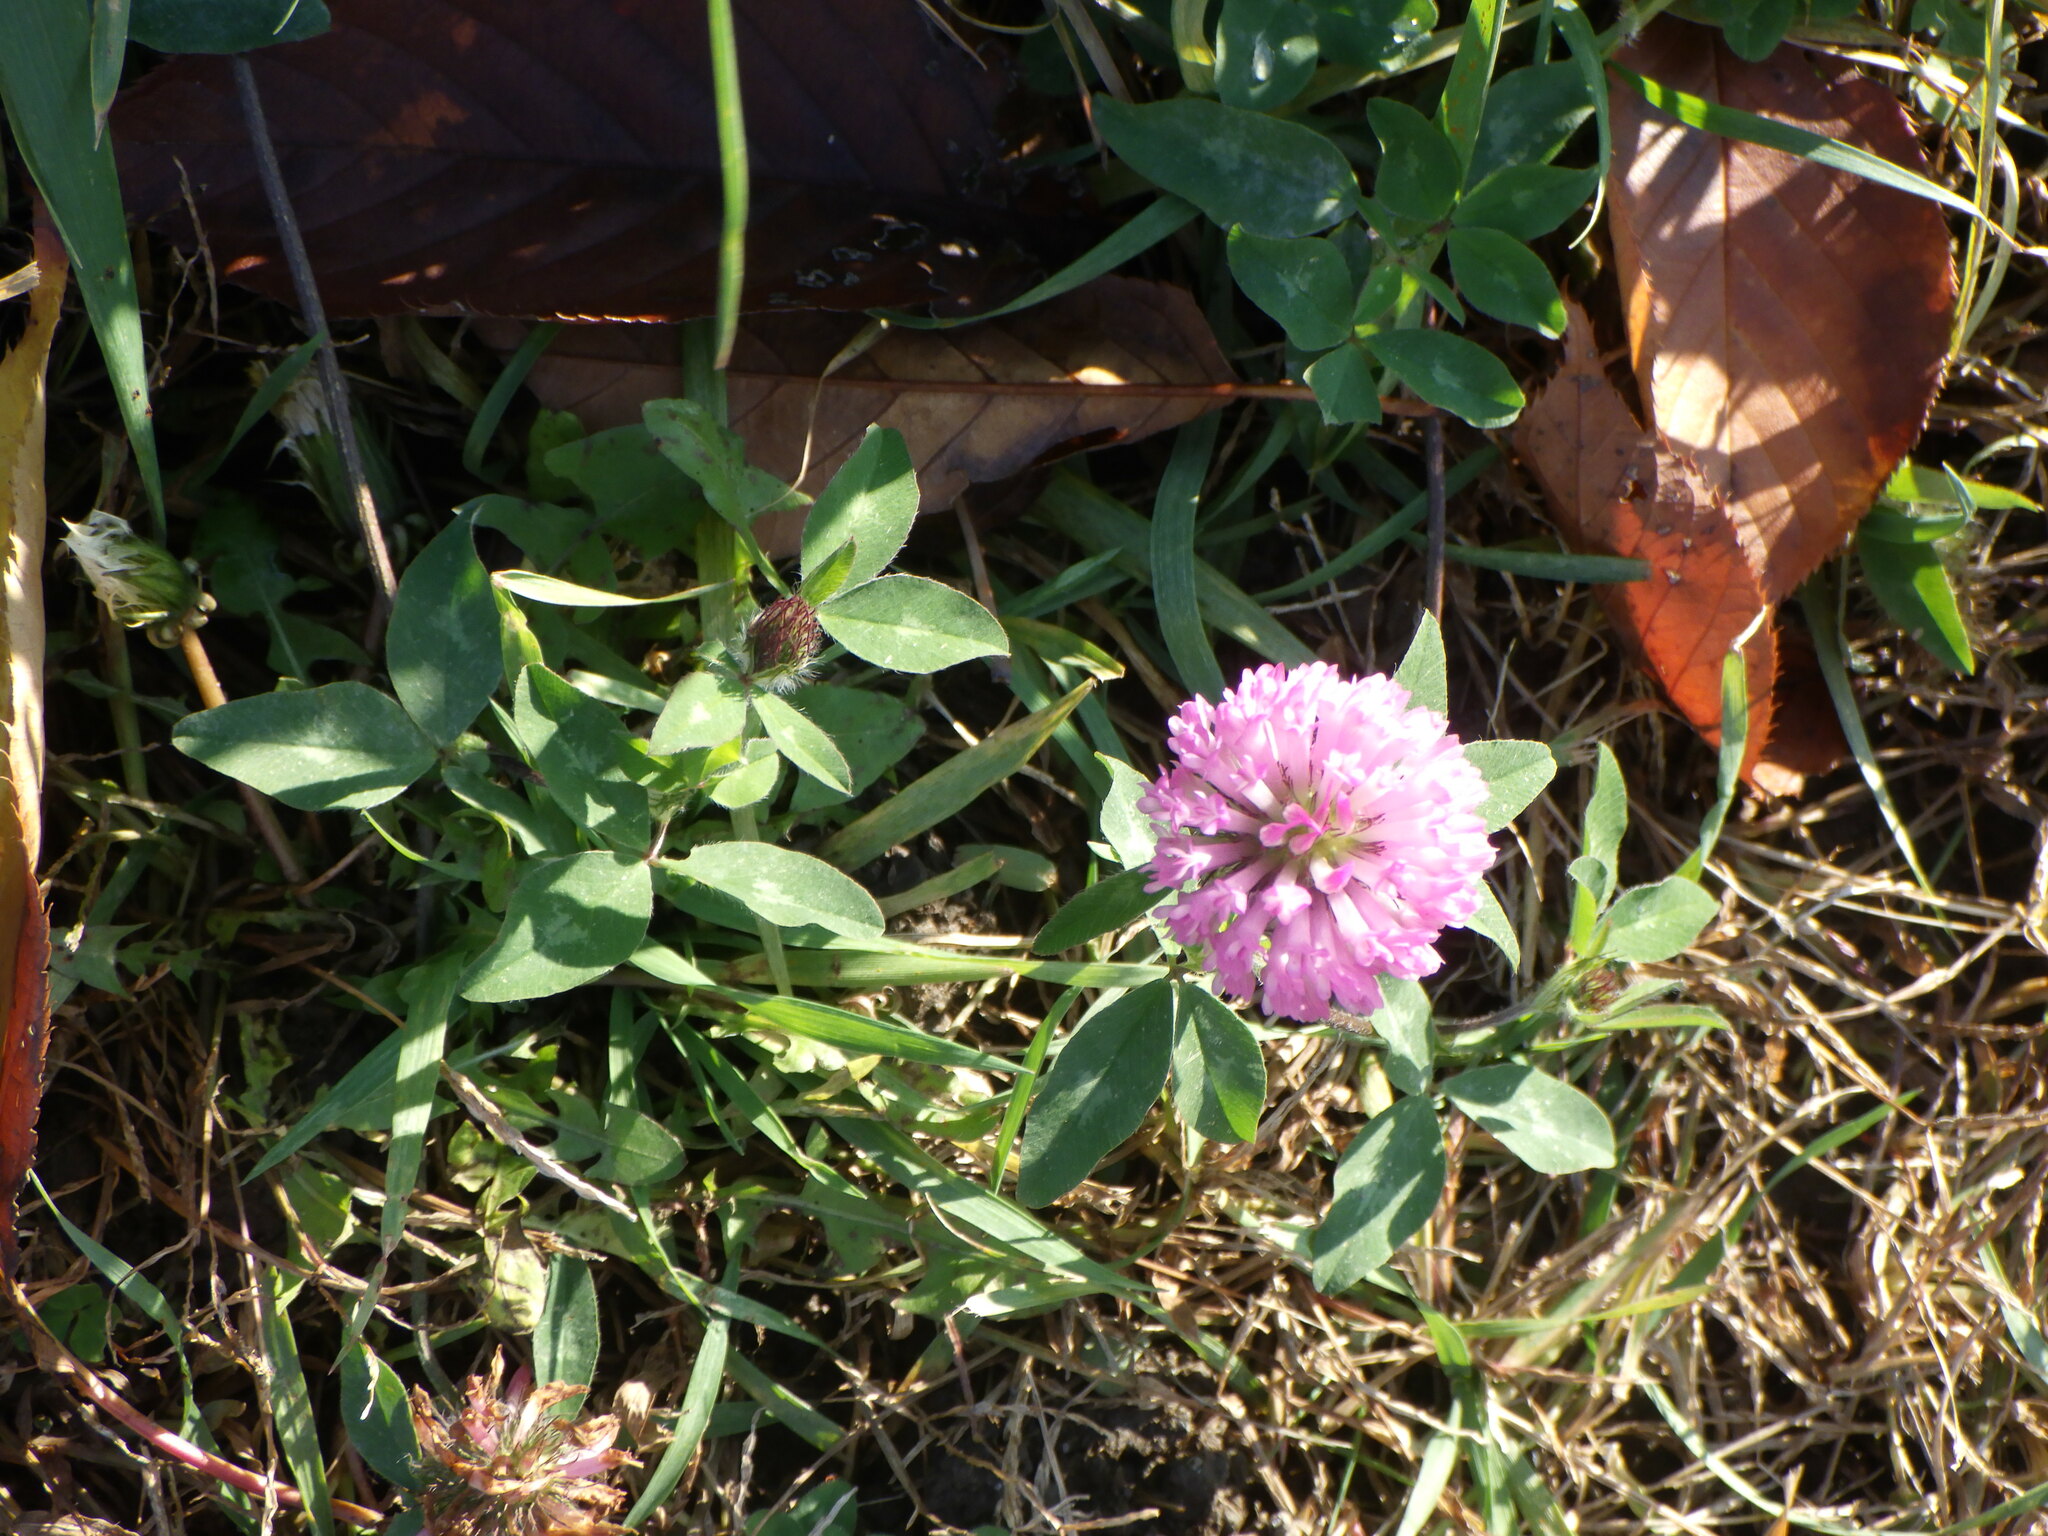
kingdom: Plantae
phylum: Tracheophyta
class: Magnoliopsida
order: Fabales
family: Fabaceae
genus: Trifolium
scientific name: Trifolium pratense
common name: Red clover
